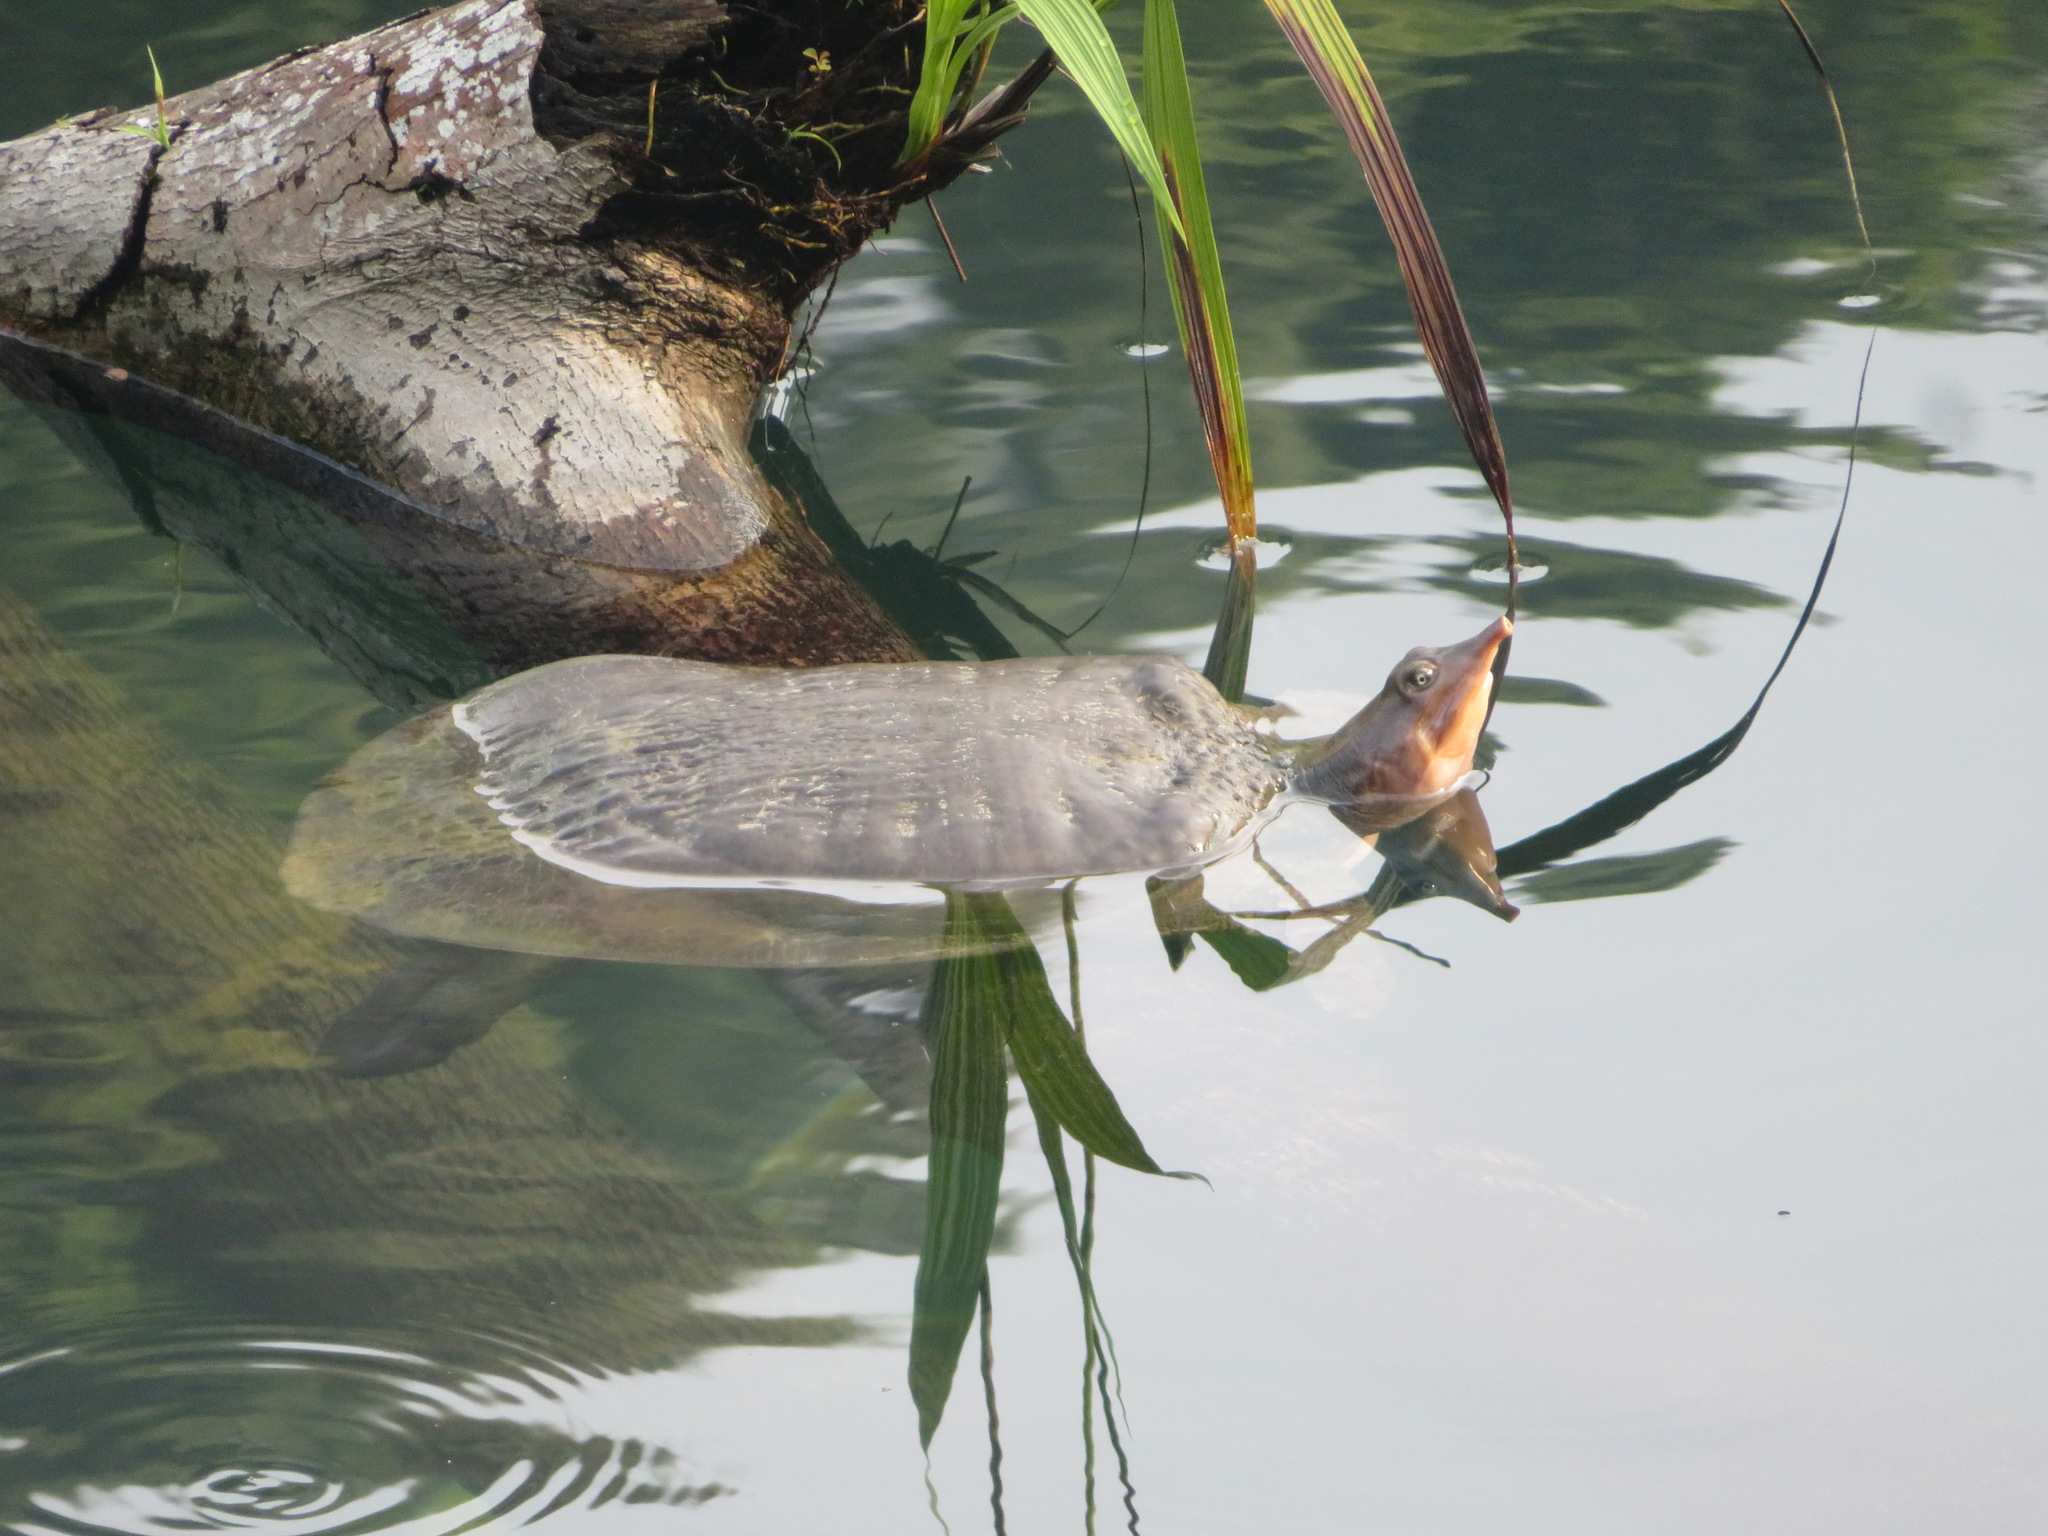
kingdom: Animalia
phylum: Chordata
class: Testudines
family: Trionychidae
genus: Apalone
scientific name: Apalone ferox
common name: Florida softshell turtle
